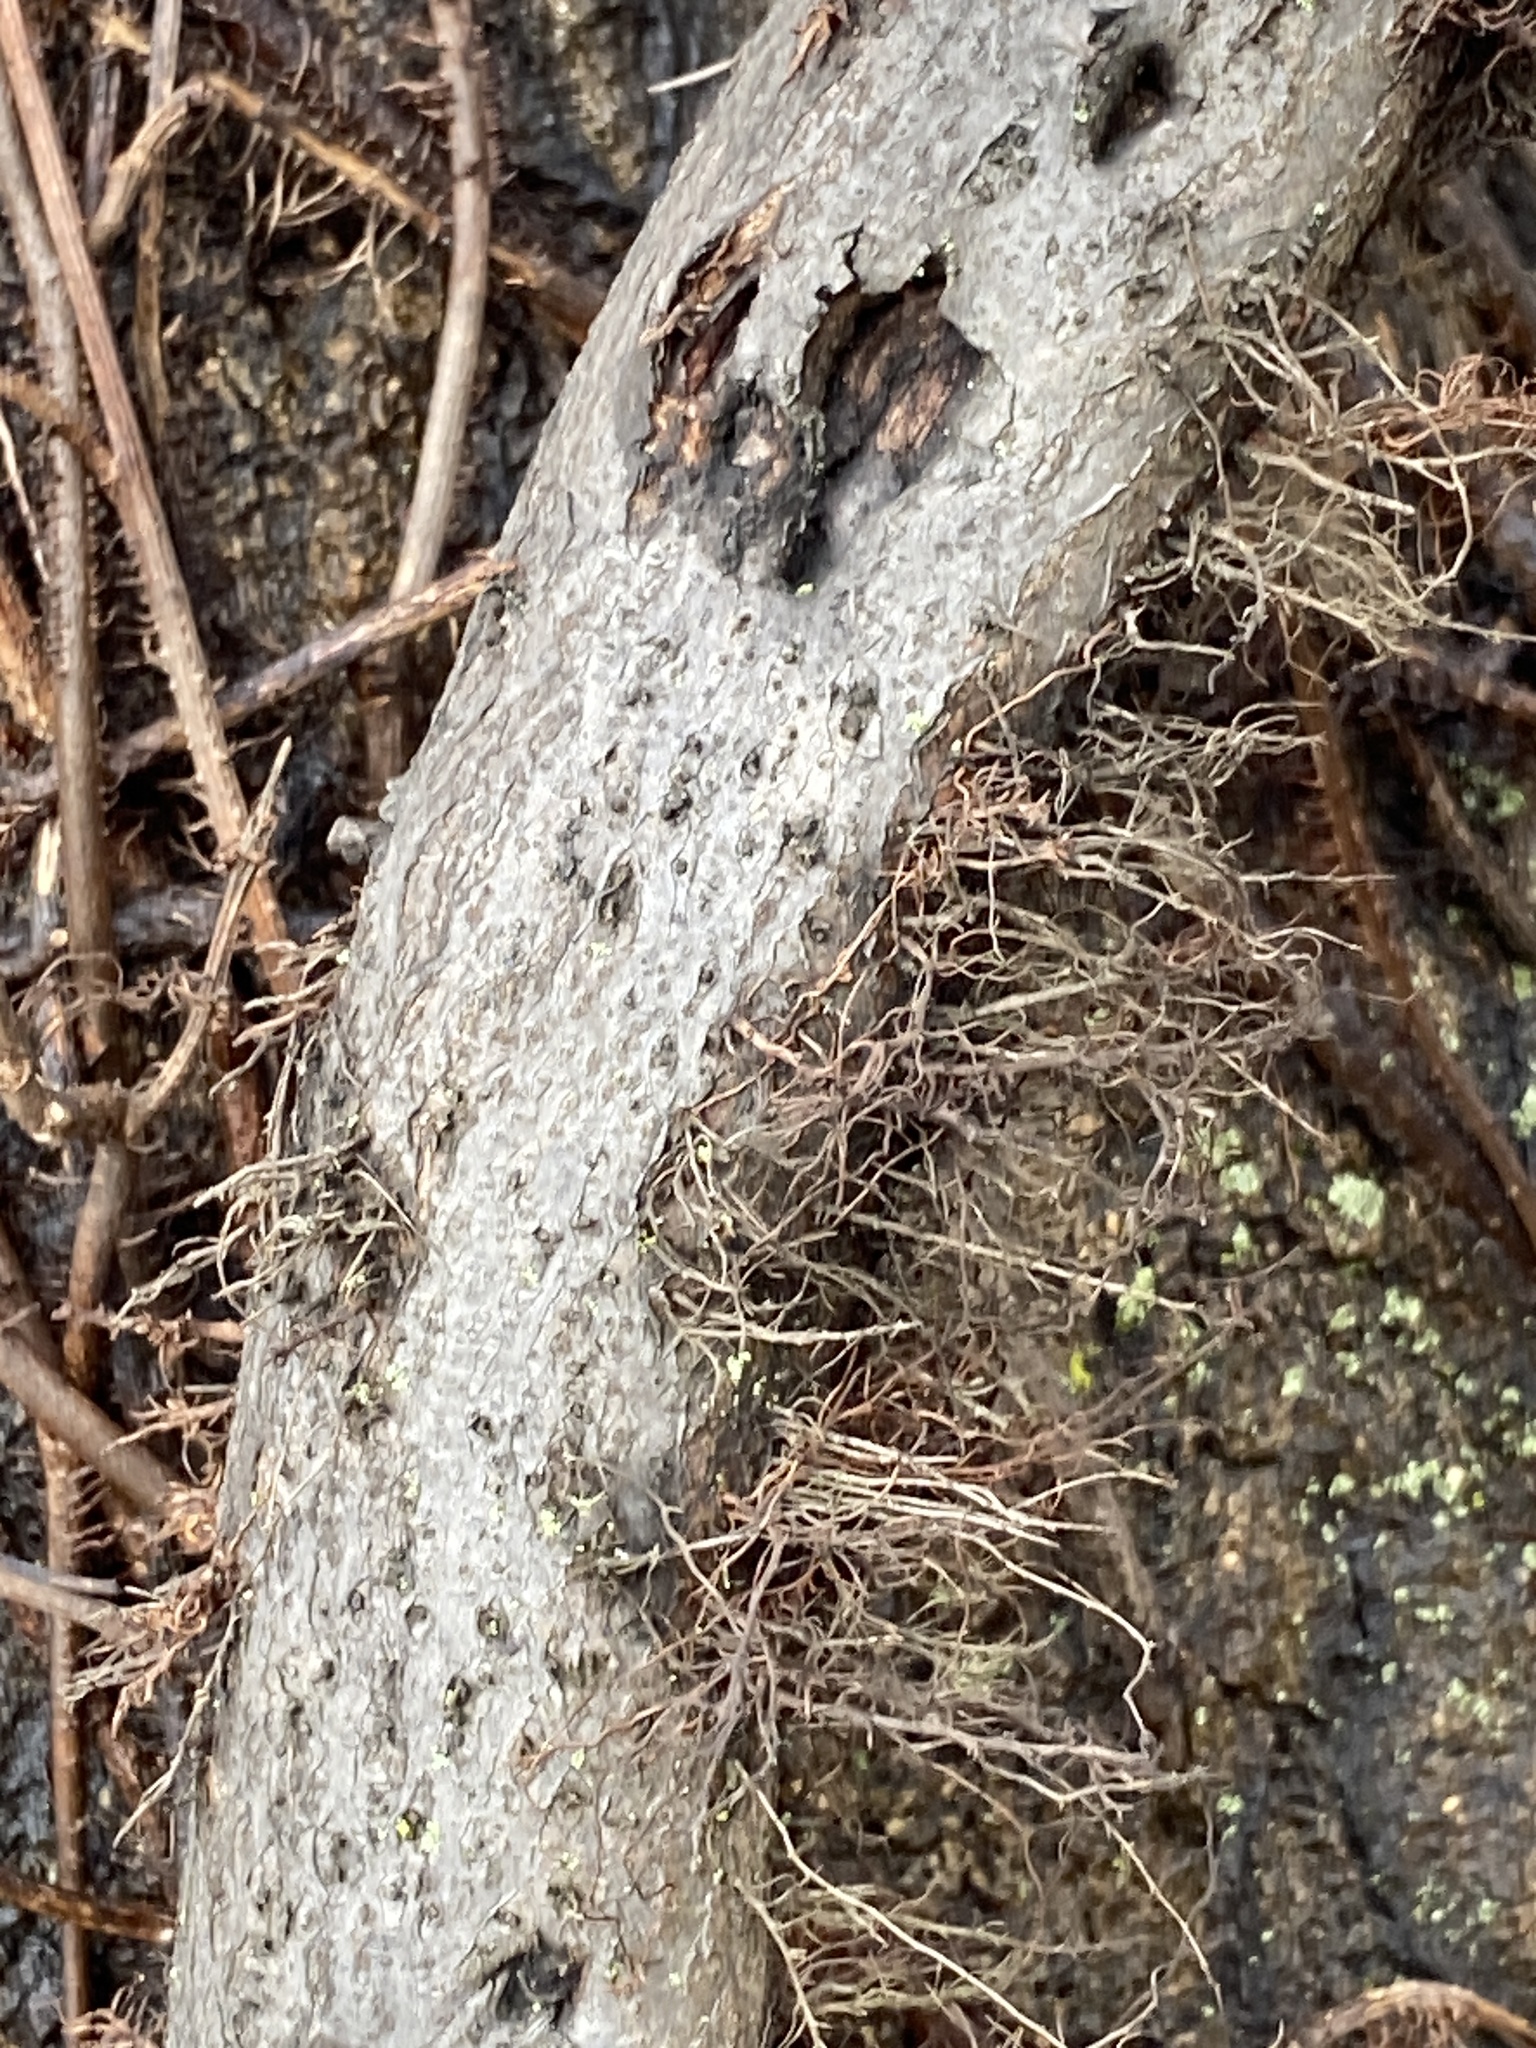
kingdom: Plantae
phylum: Tracheophyta
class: Magnoliopsida
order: Sapindales
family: Anacardiaceae
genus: Toxicodendron
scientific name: Toxicodendron radicans
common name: Poison ivy
